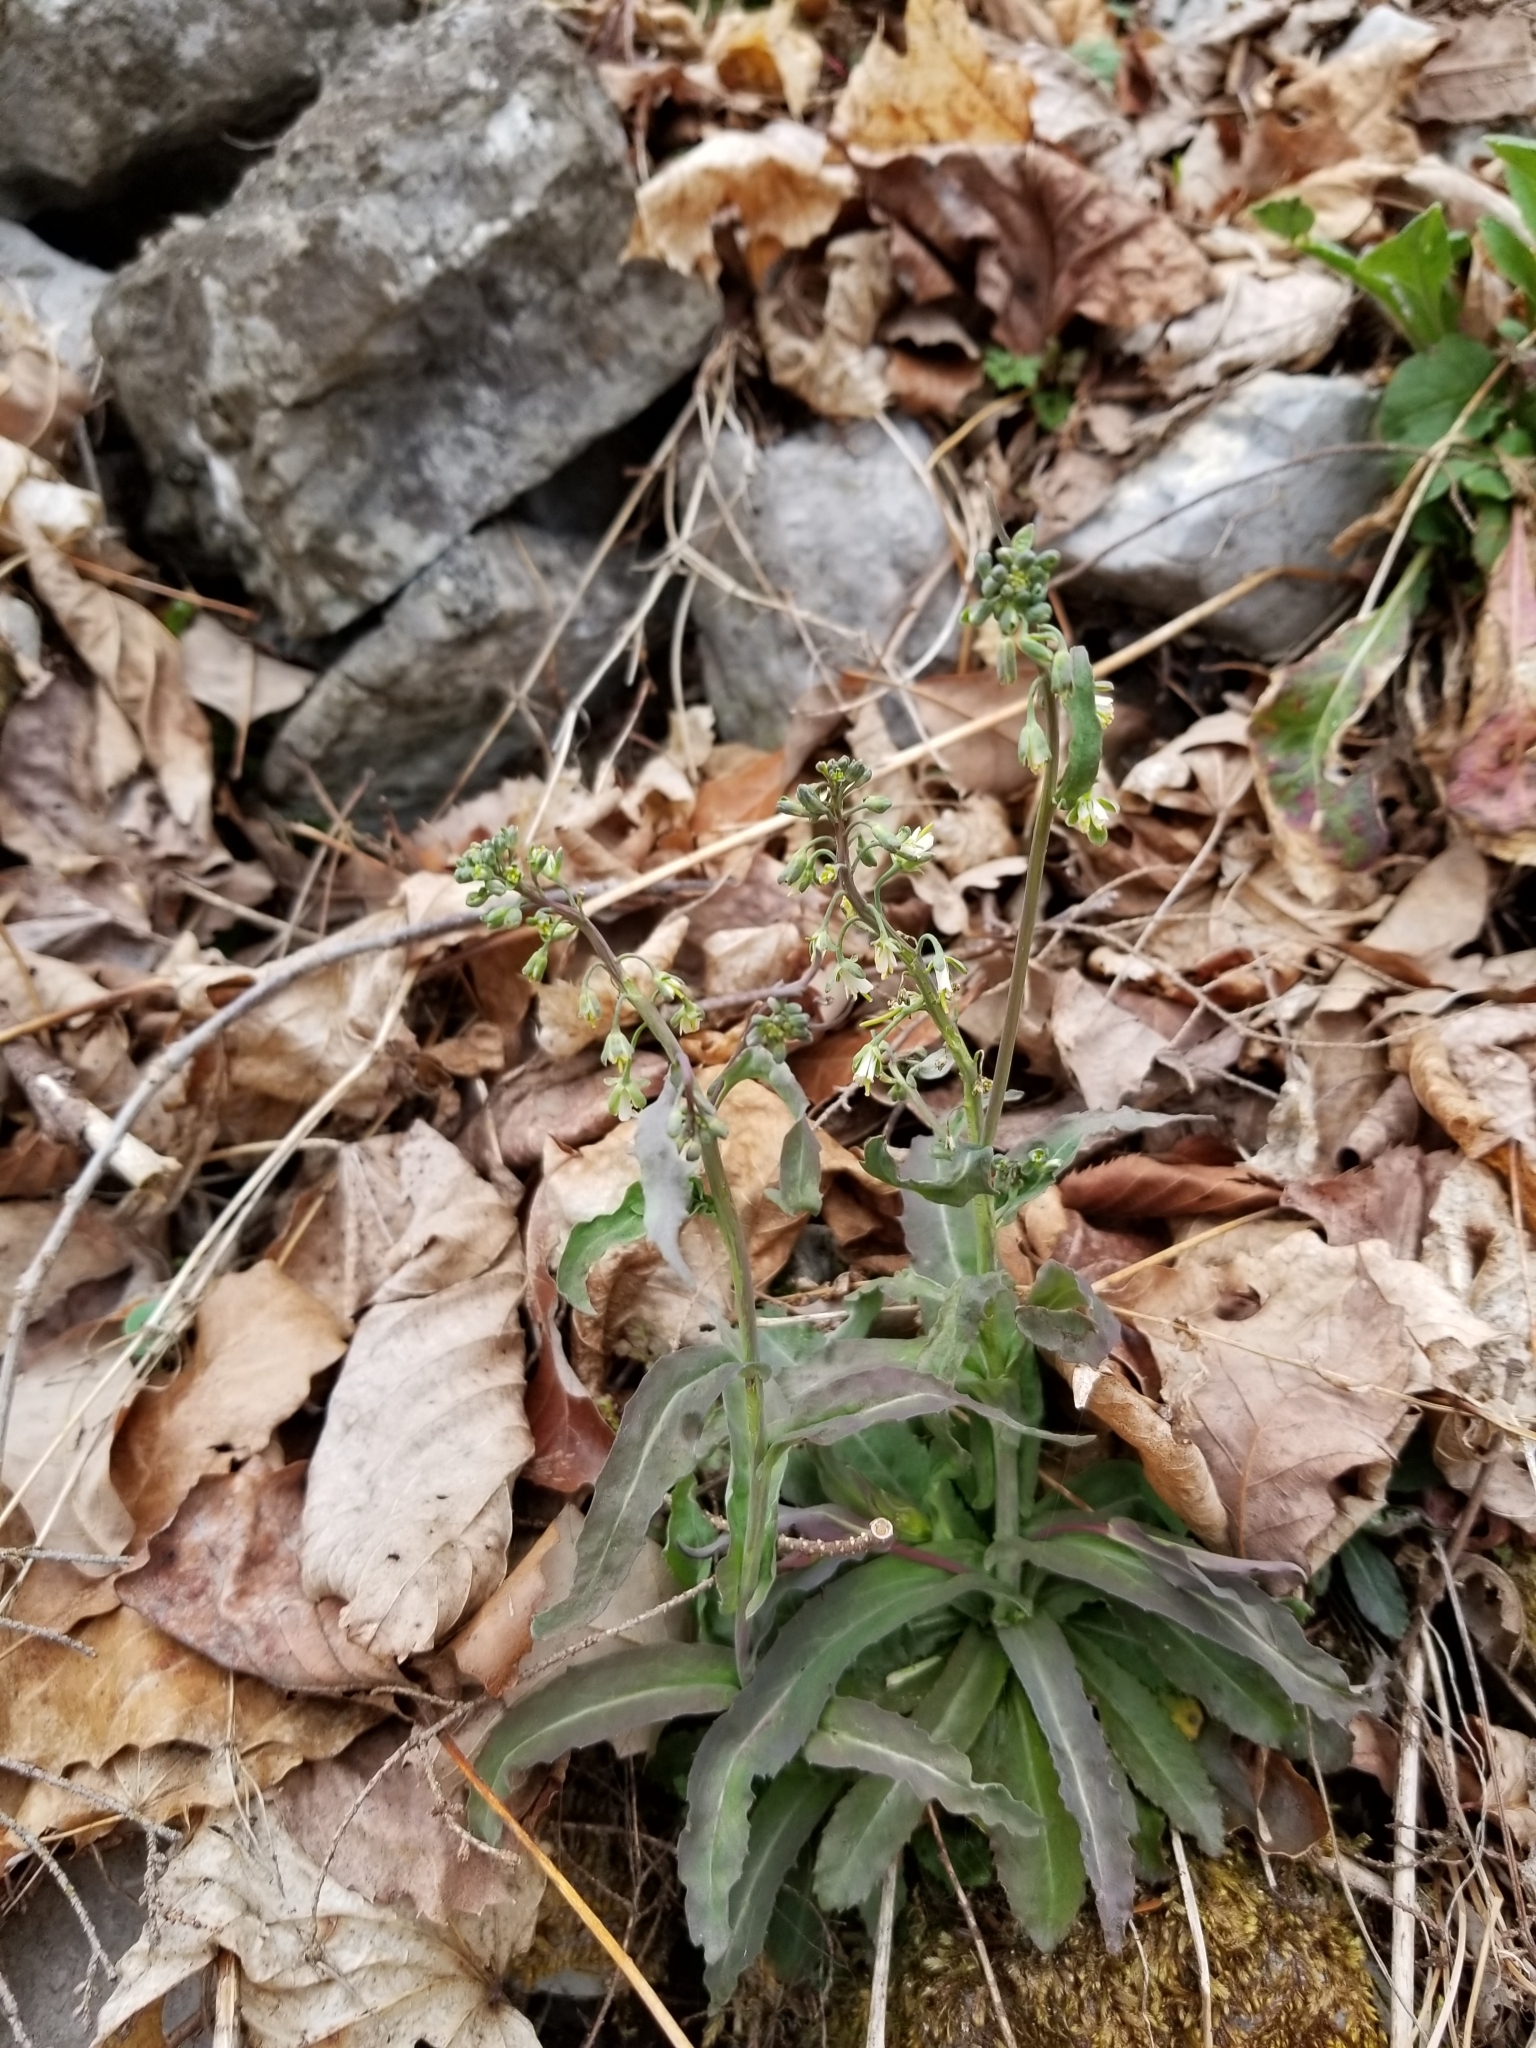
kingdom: Plantae
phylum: Tracheophyta
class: Magnoliopsida
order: Brassicales
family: Brassicaceae
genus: Borodinia
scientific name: Borodinia laevigata
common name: Smooth rockcress
